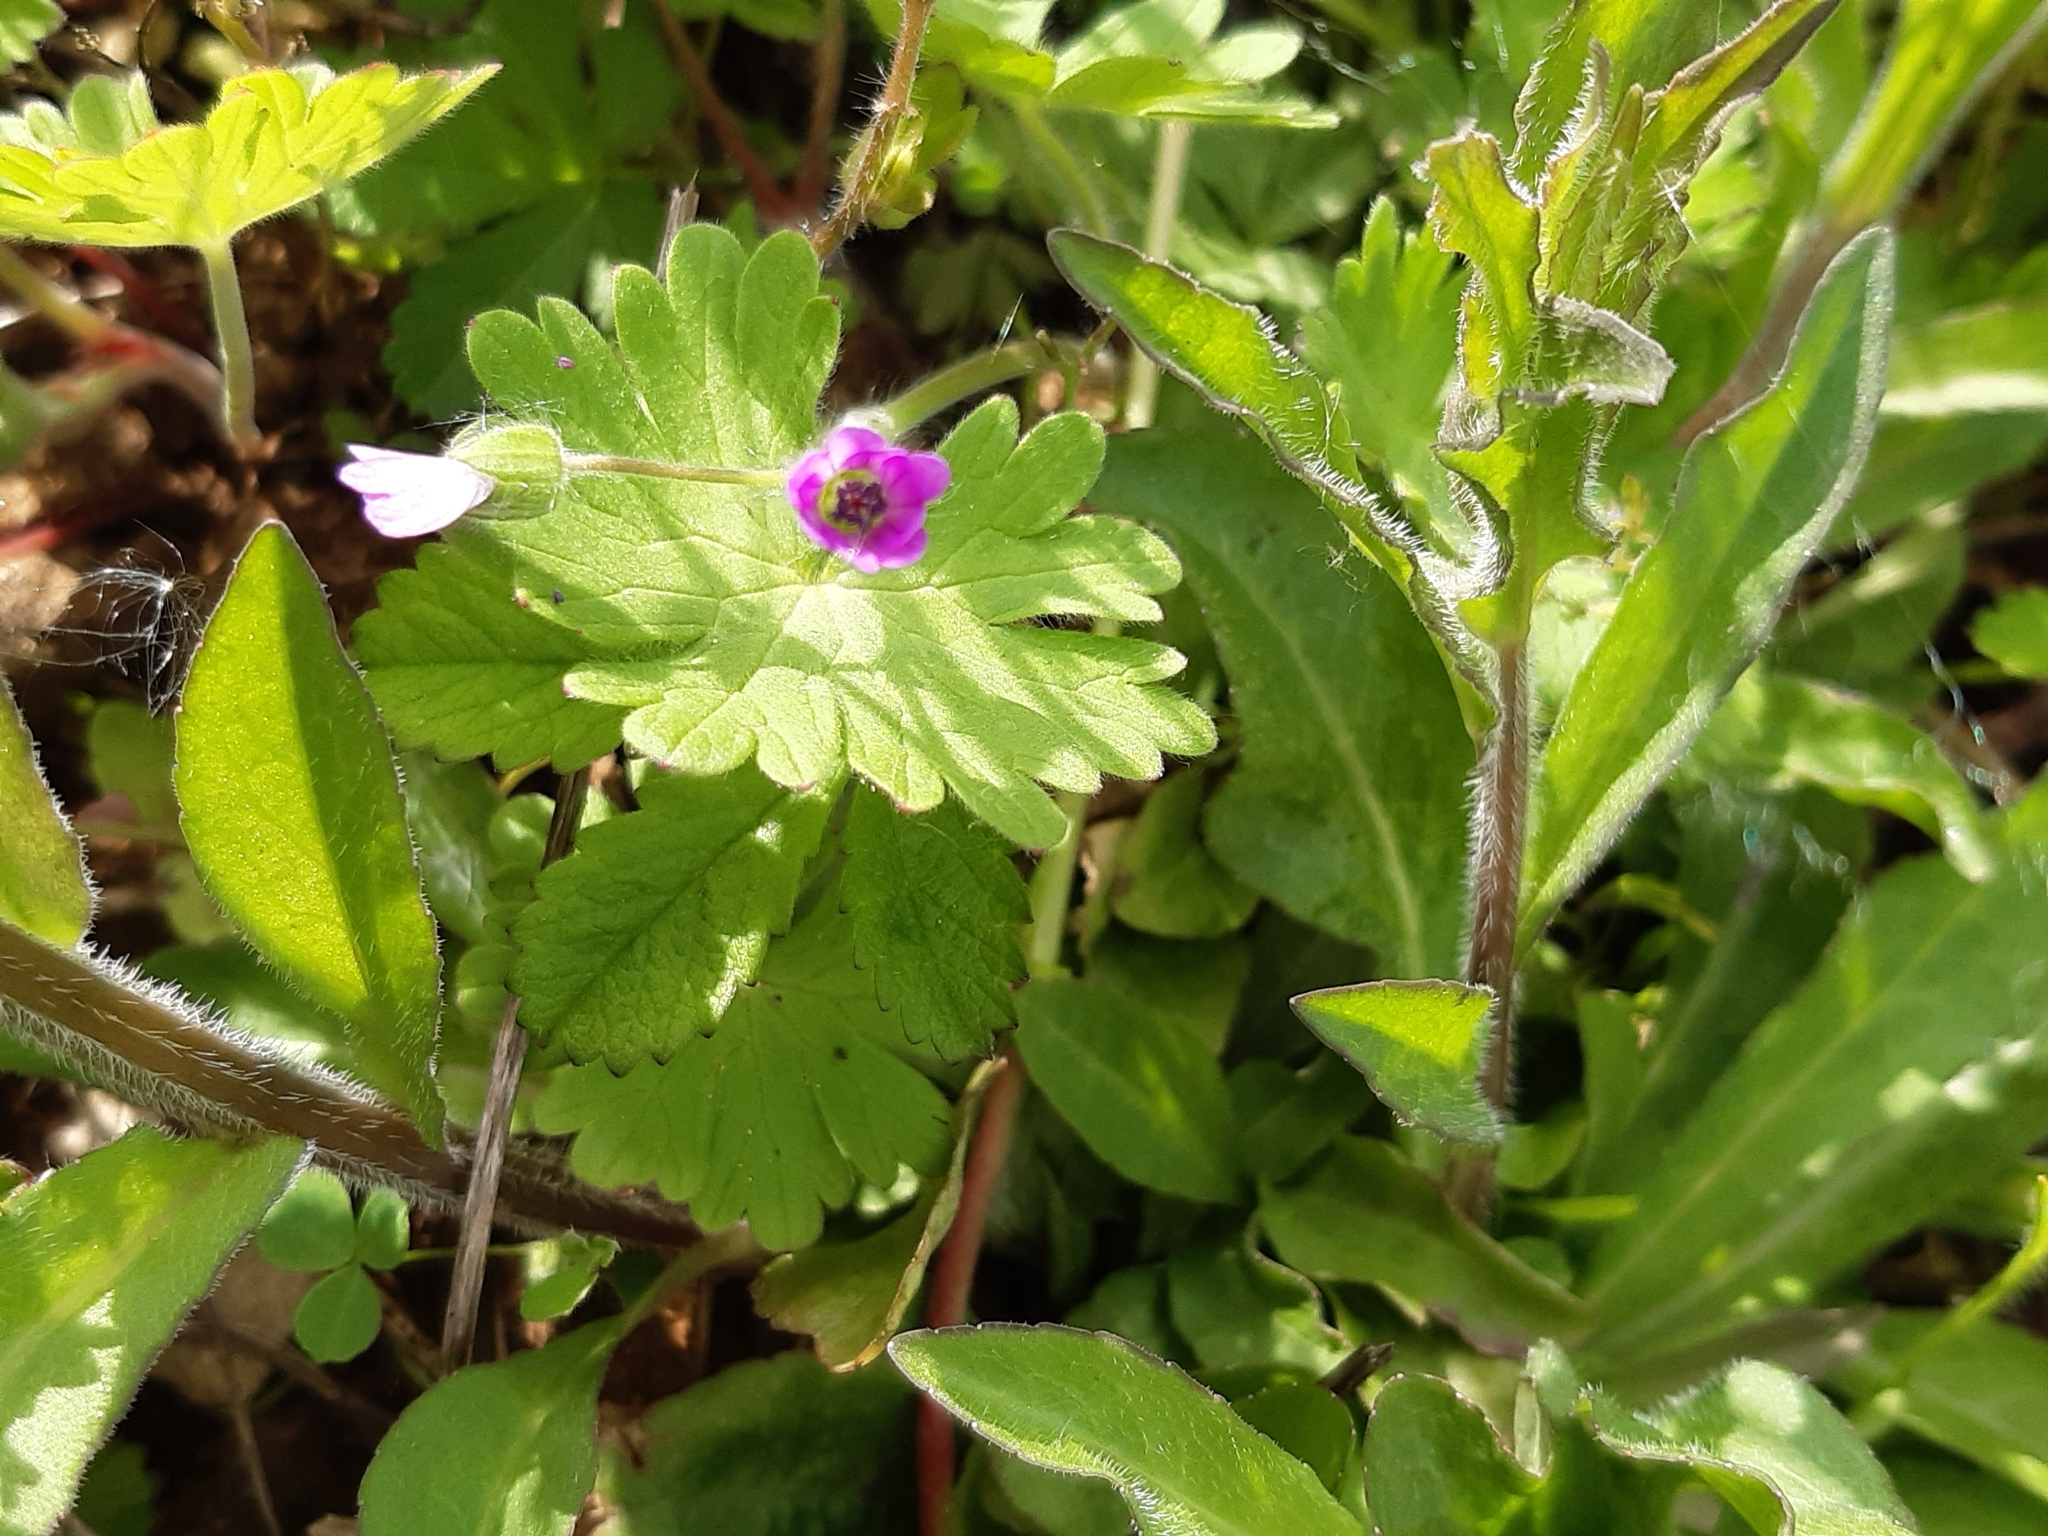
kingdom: Plantae
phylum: Tracheophyta
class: Magnoliopsida
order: Geraniales
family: Geraniaceae
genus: Geranium
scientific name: Geranium molle
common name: Dove's-foot crane's-bill
